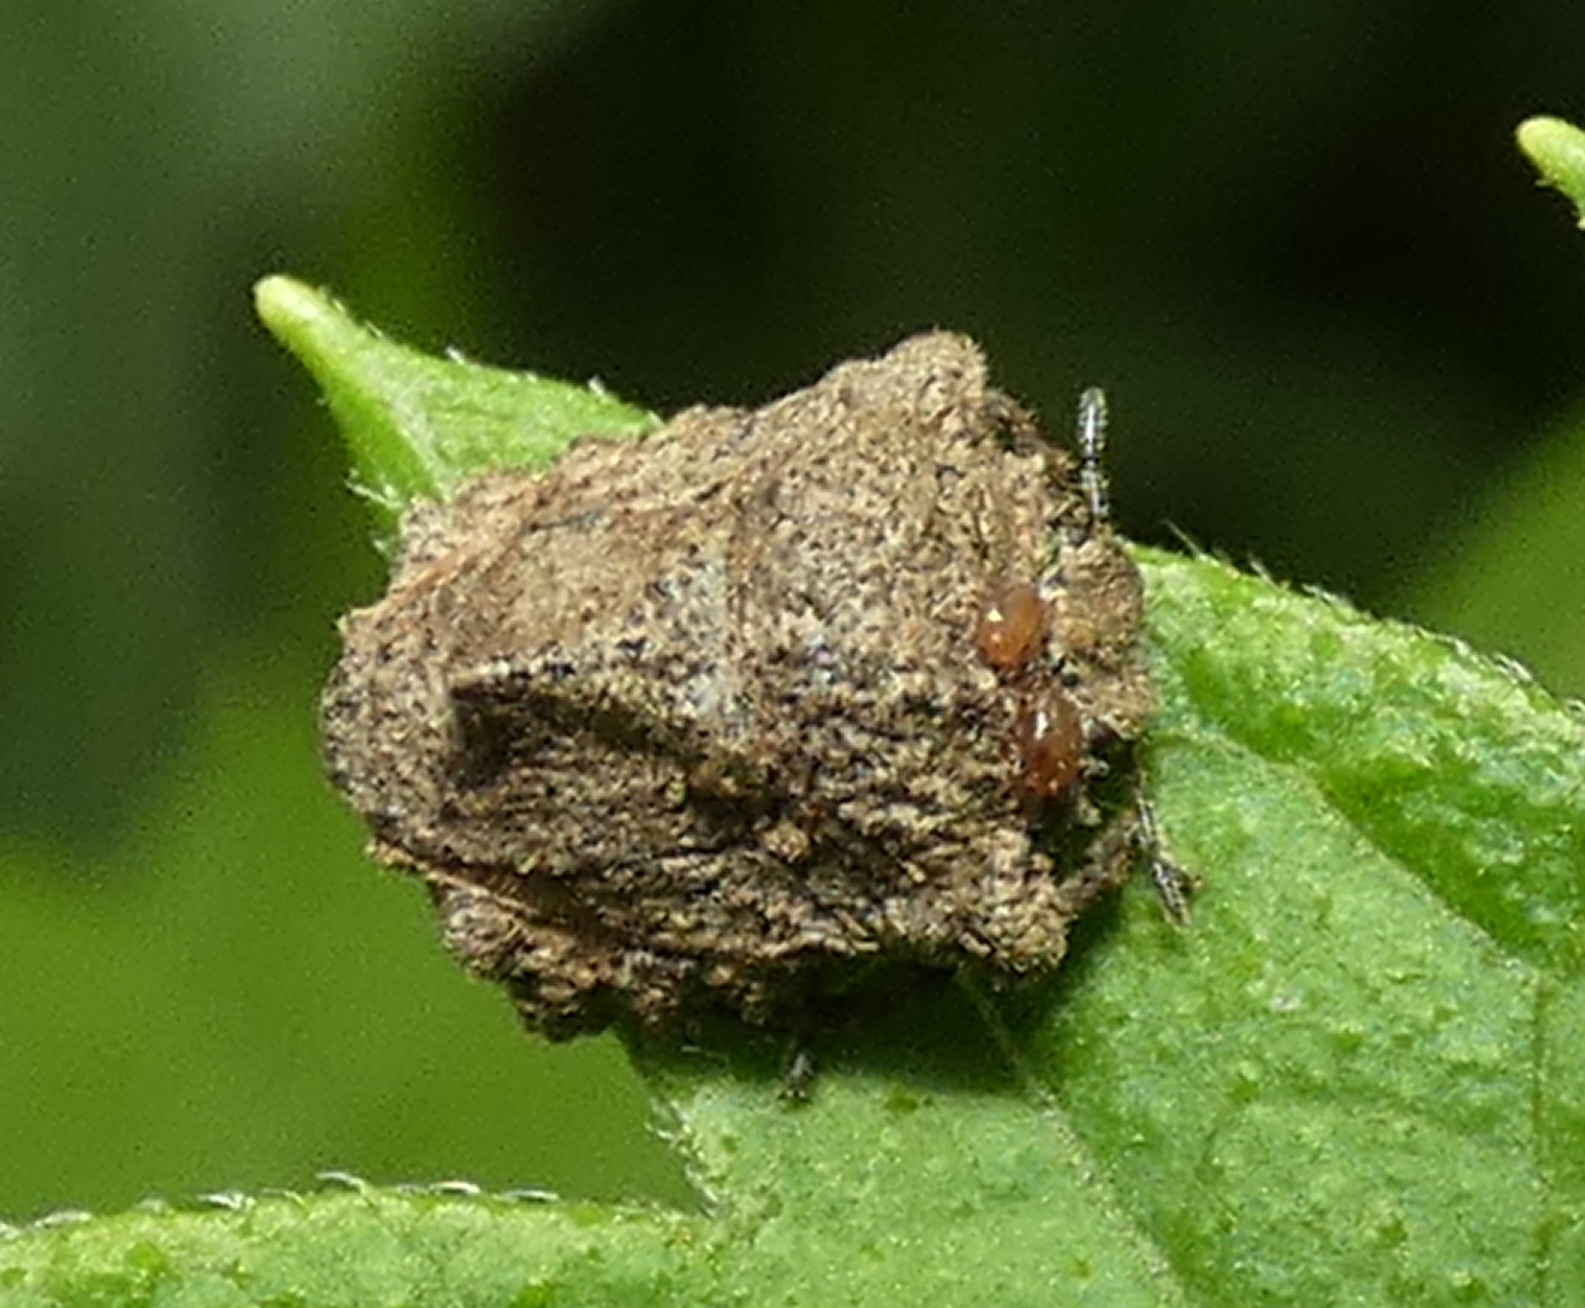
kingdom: Animalia
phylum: Arthropoda
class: Insecta
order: Hemiptera
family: Pentatomidae
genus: Cyrtocoris
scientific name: Cyrtocoris
